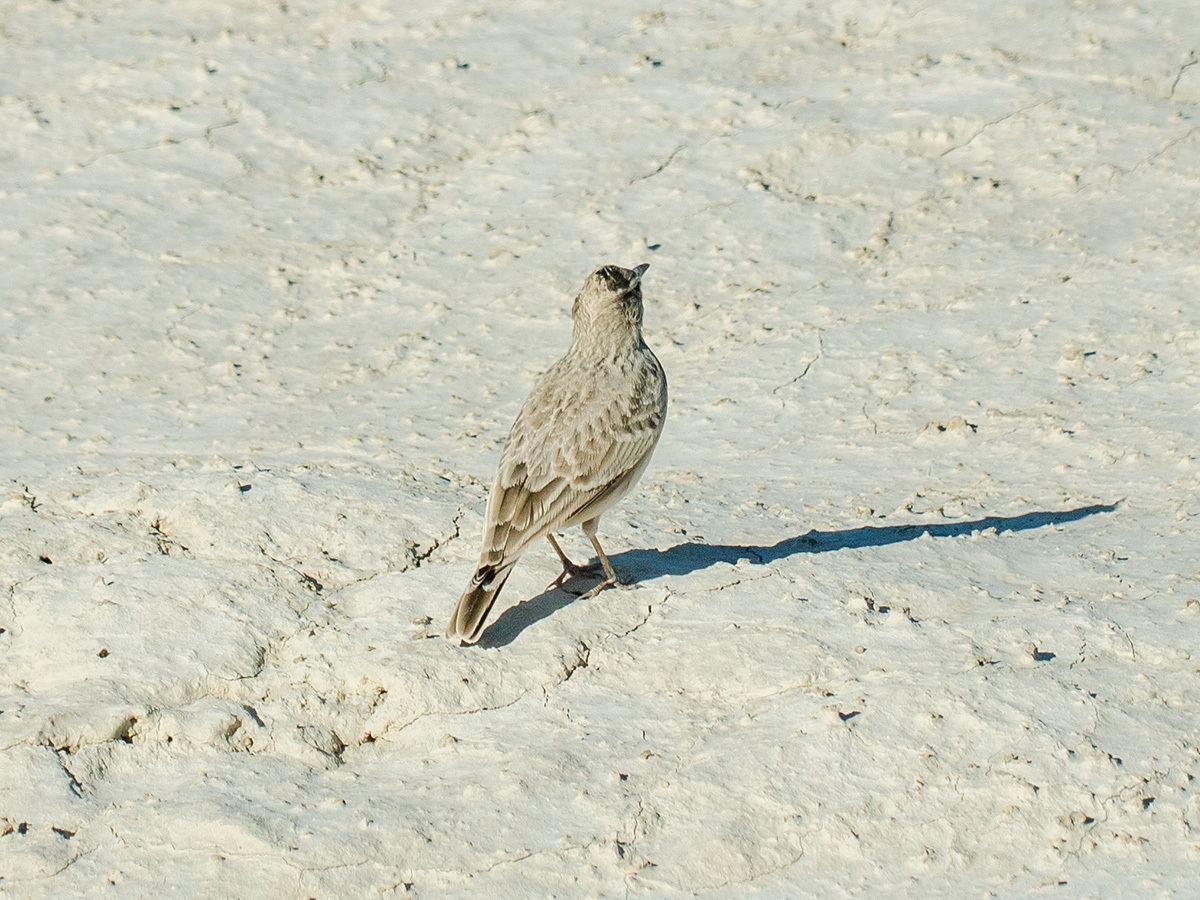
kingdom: Animalia
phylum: Chordata
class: Aves
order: Passeriformes
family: Alaudidae
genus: Galerida
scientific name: Galerida cristata
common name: Crested lark
